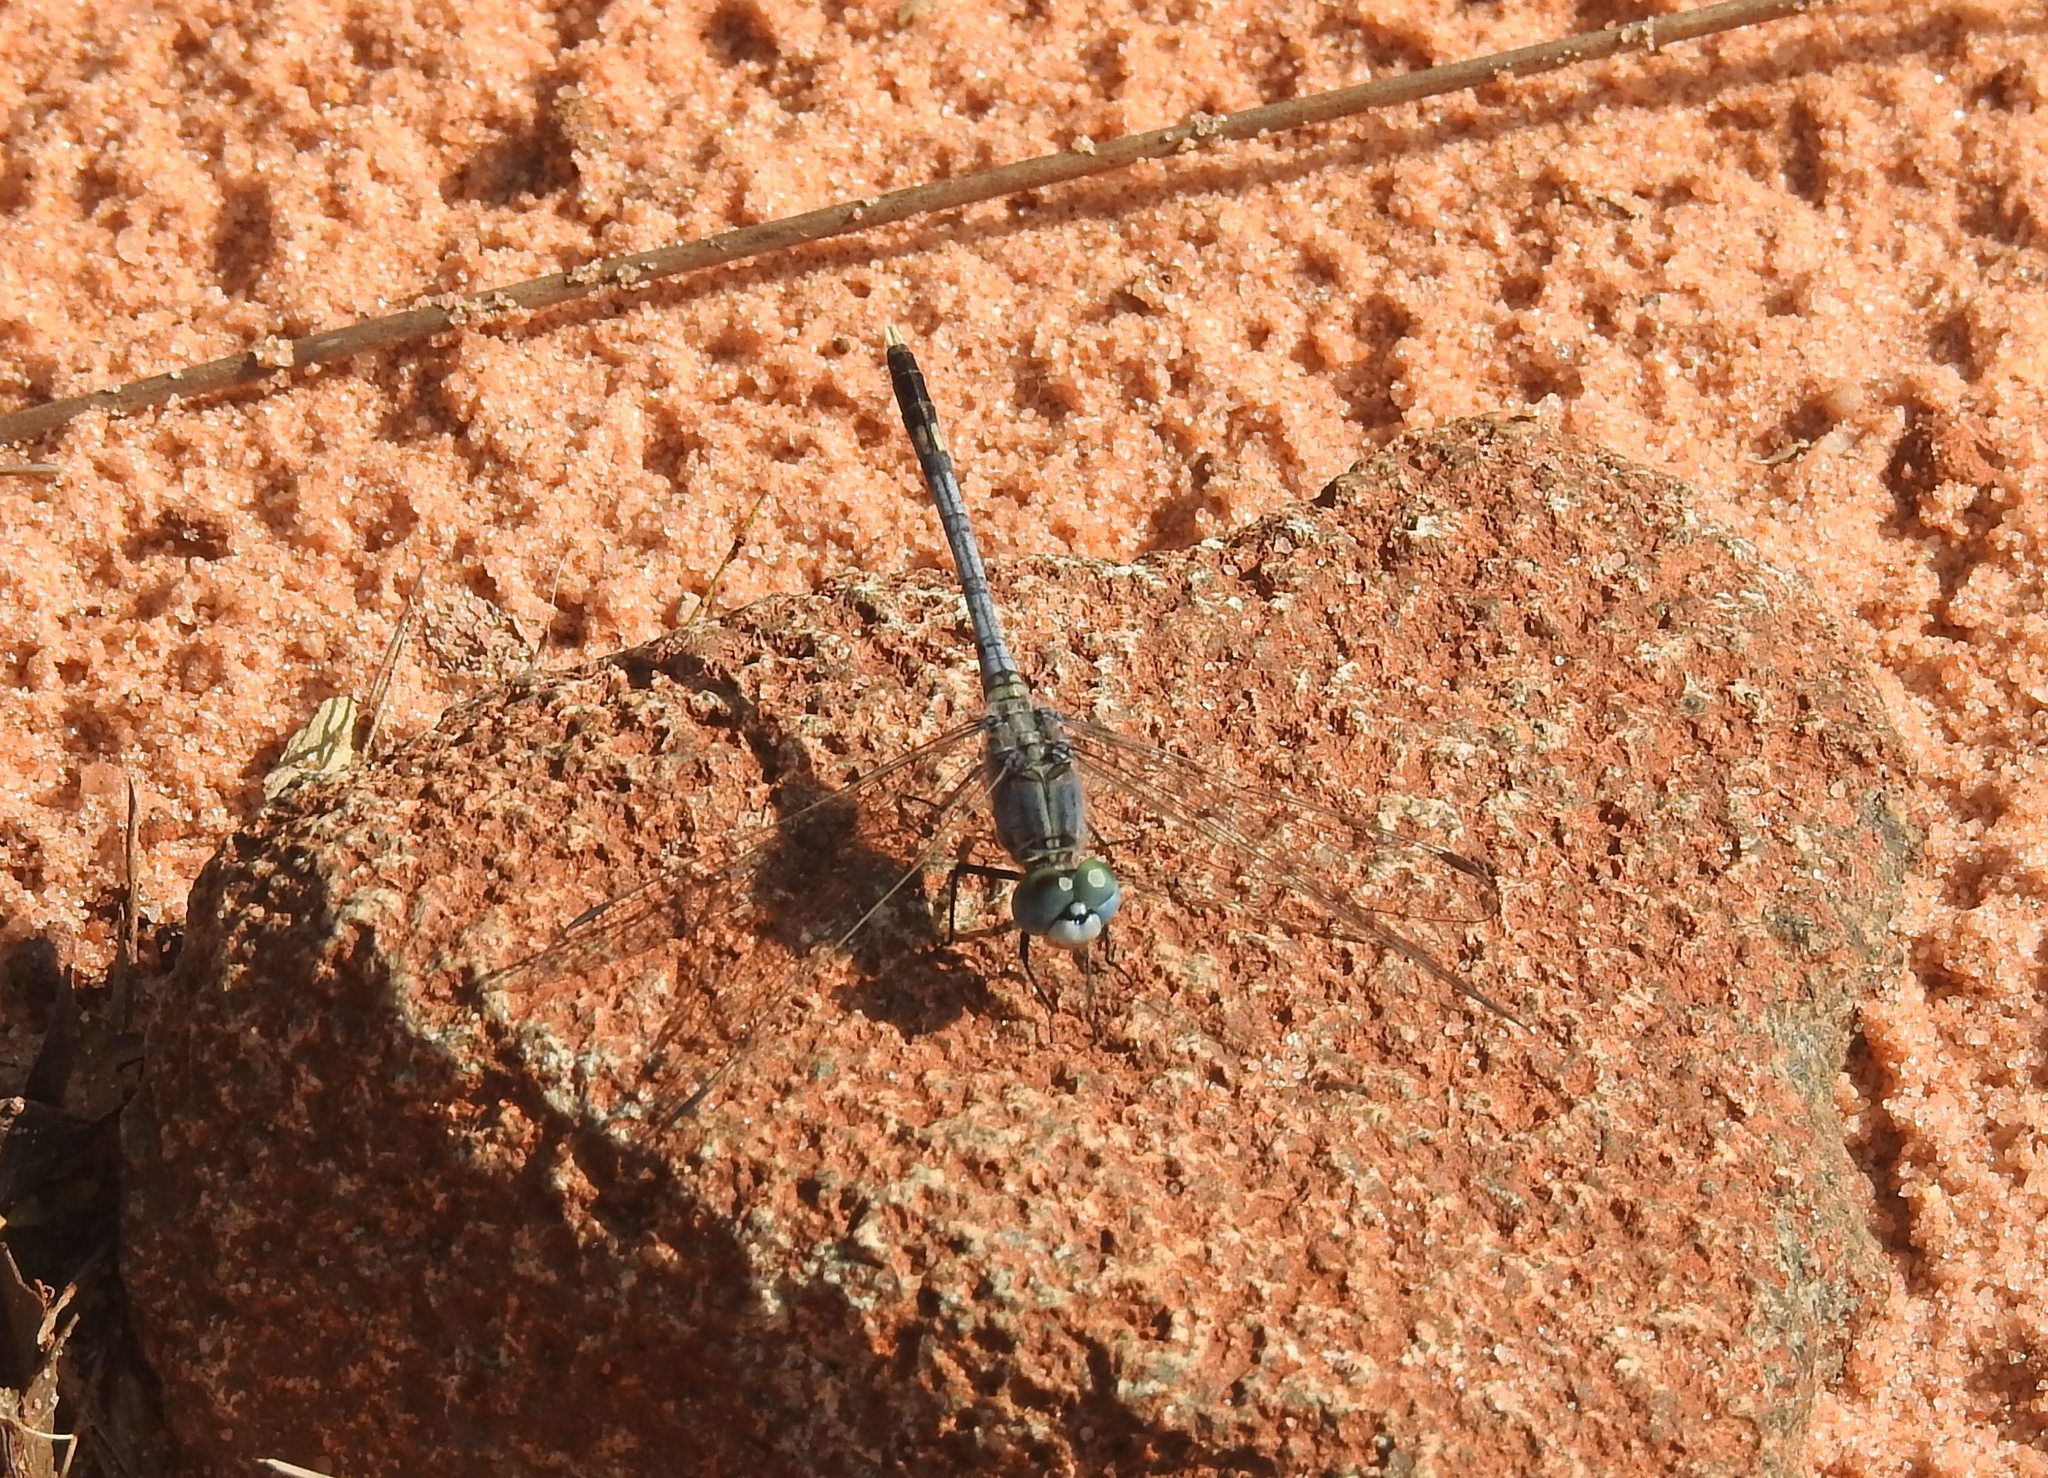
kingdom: Animalia
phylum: Arthropoda
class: Insecta
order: Odonata
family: Libellulidae
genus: Diplacodes
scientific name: Diplacodes trivialis
